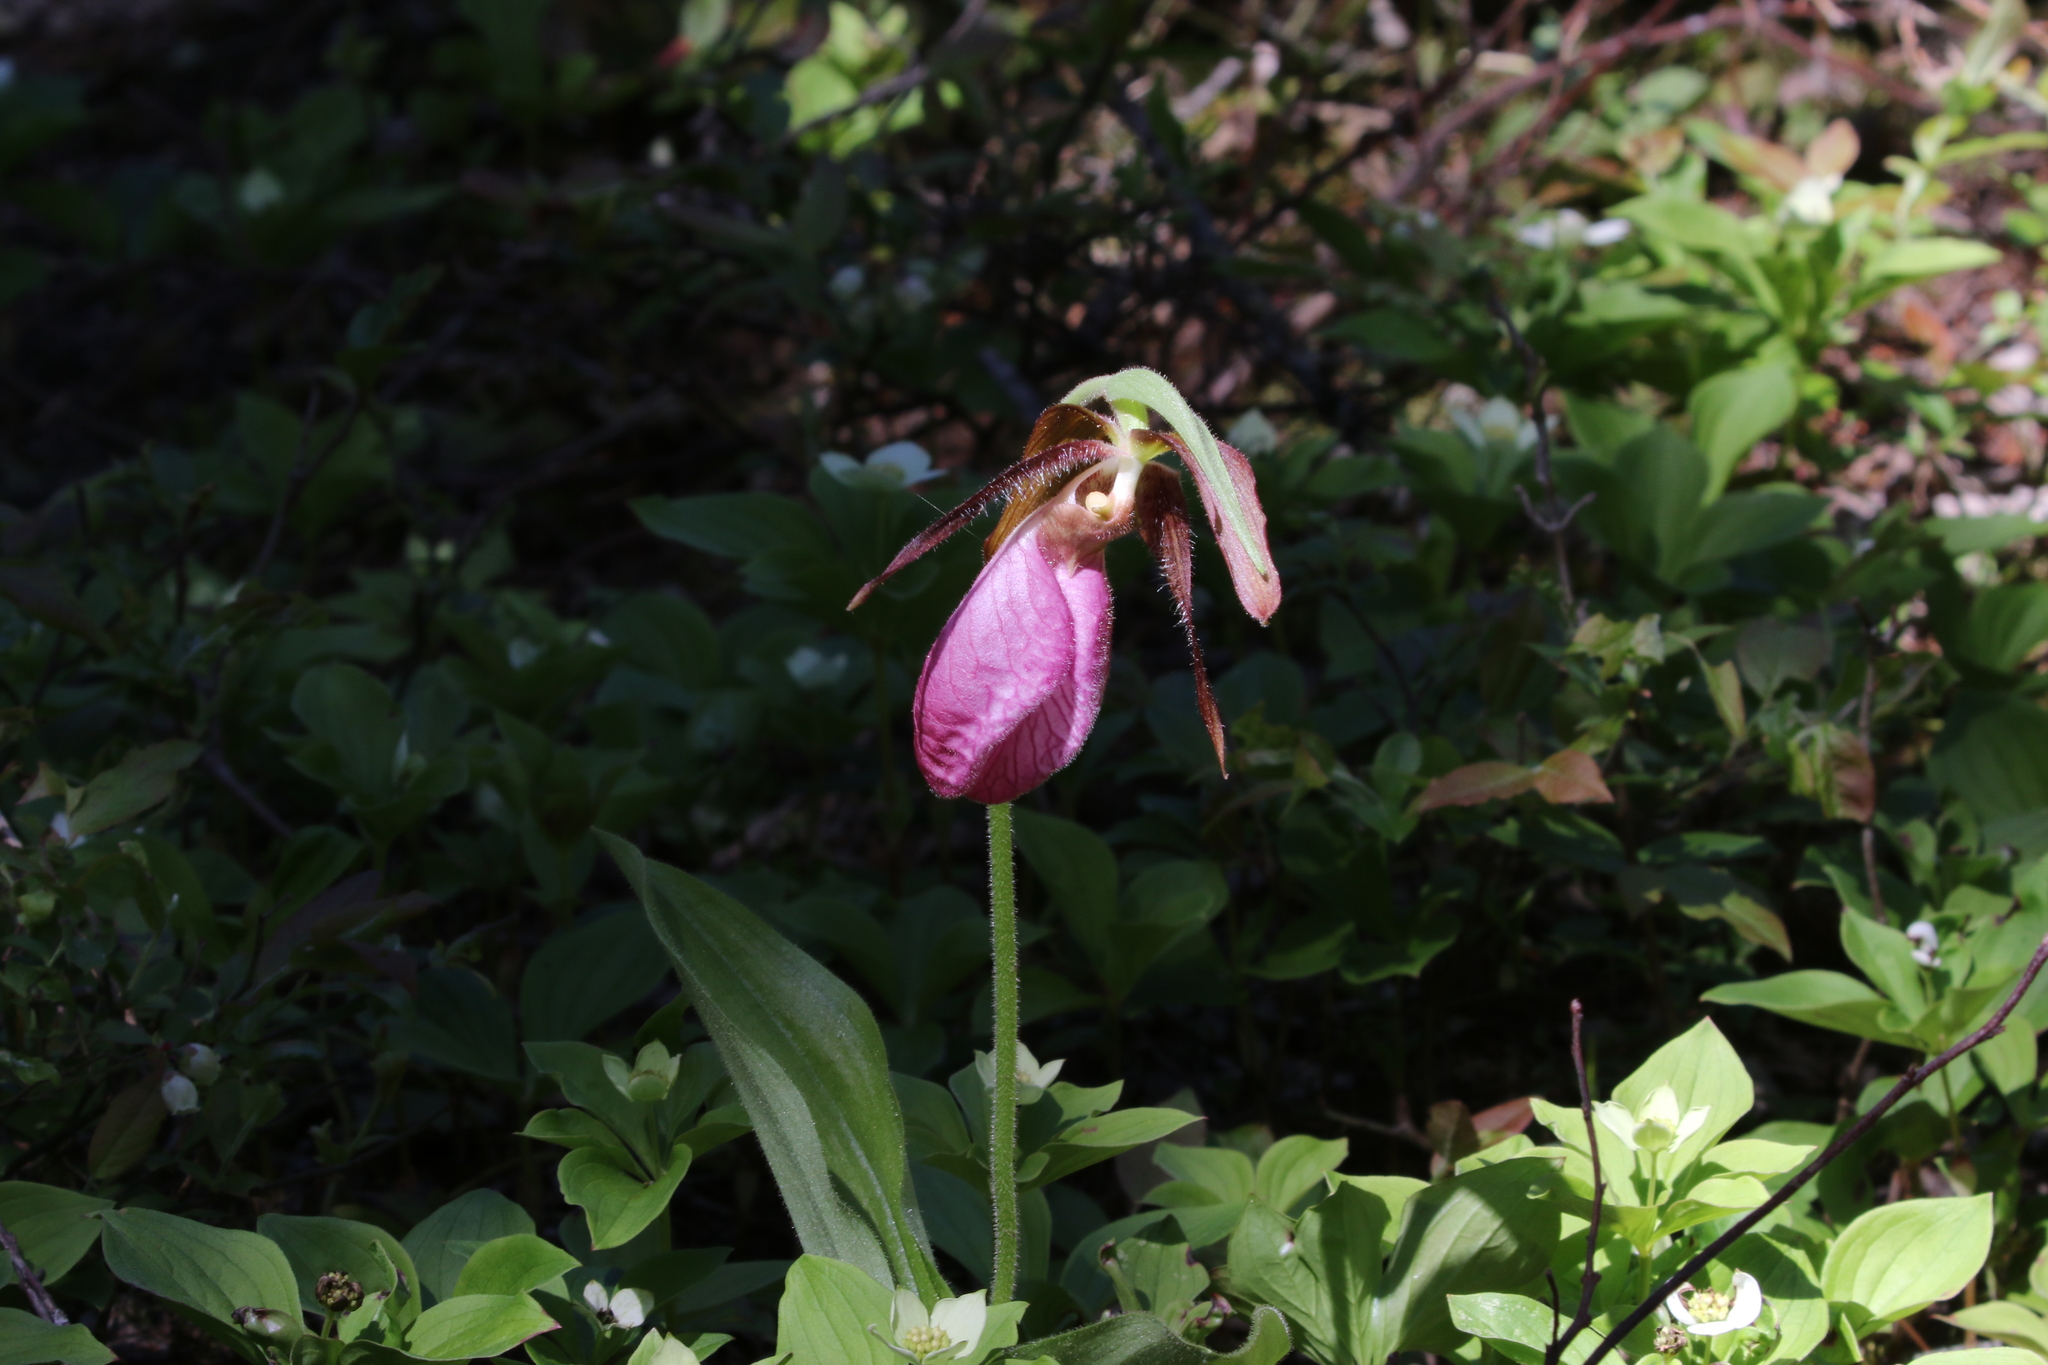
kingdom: Plantae
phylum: Tracheophyta
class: Liliopsida
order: Asparagales
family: Orchidaceae
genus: Cypripedium
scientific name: Cypripedium acaule
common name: Pink lady's-slipper
